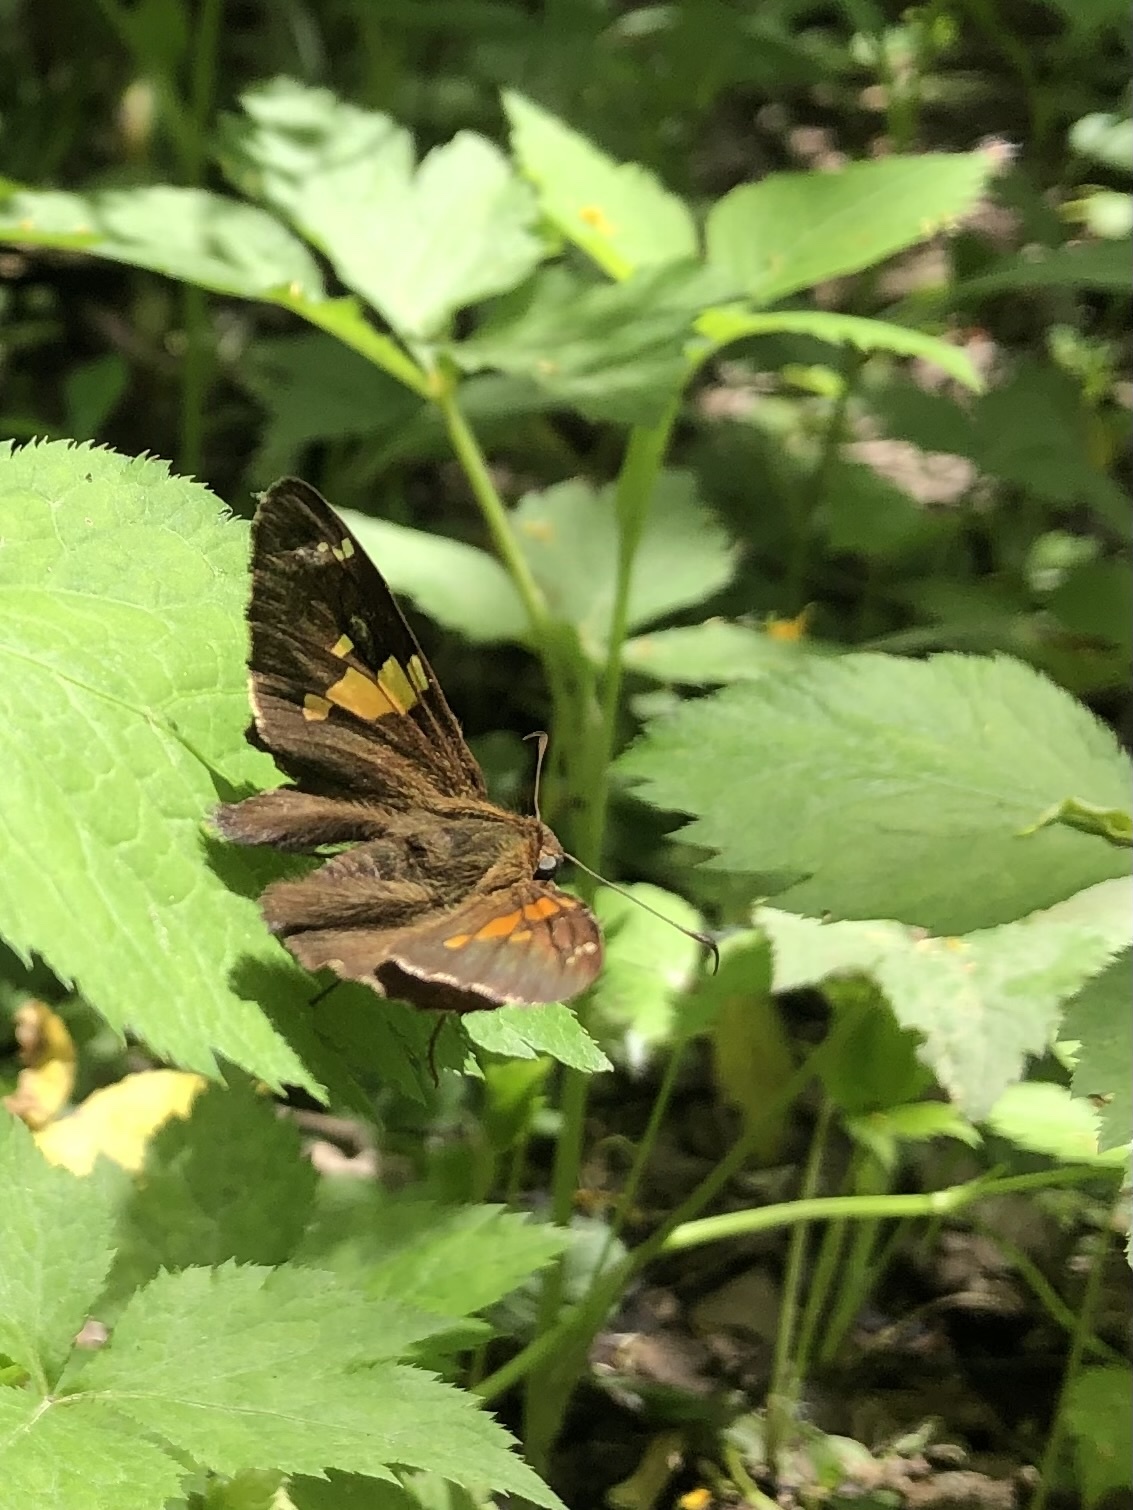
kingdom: Animalia
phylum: Arthropoda
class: Insecta
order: Lepidoptera
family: Hesperiidae
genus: Epargyreus
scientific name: Epargyreus clarus
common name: Silver-spotted skipper
